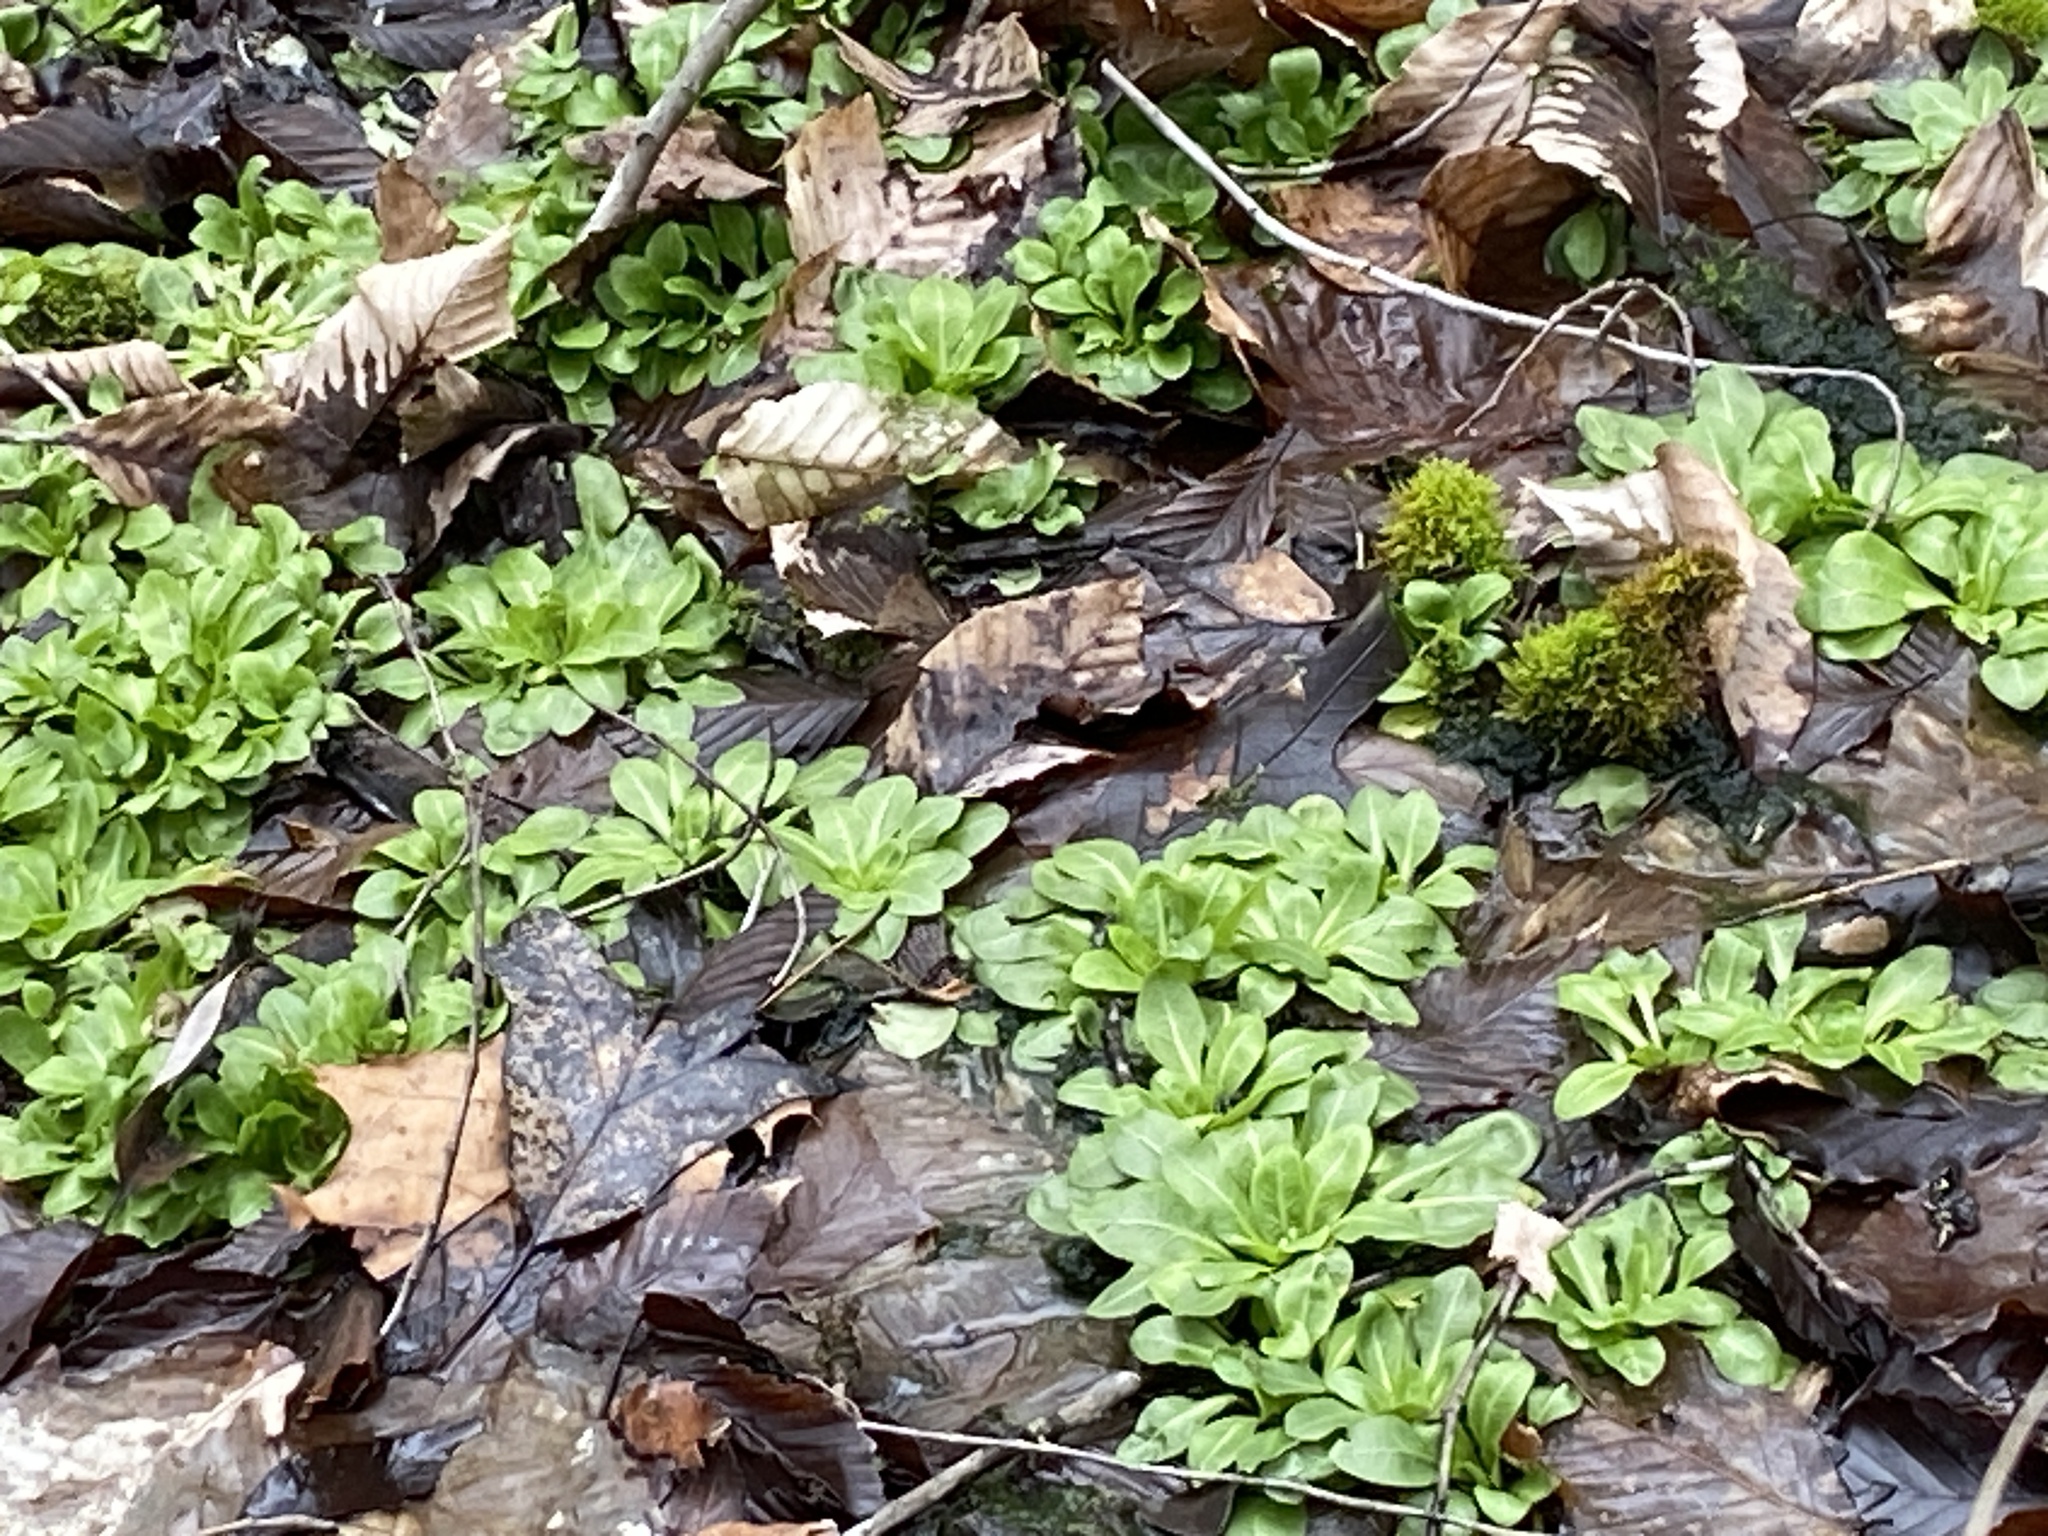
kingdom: Plantae
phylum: Tracheophyta
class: Magnoliopsida
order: Ericales
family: Primulaceae
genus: Samolus
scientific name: Samolus parviflorus
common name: False water pimpernel
